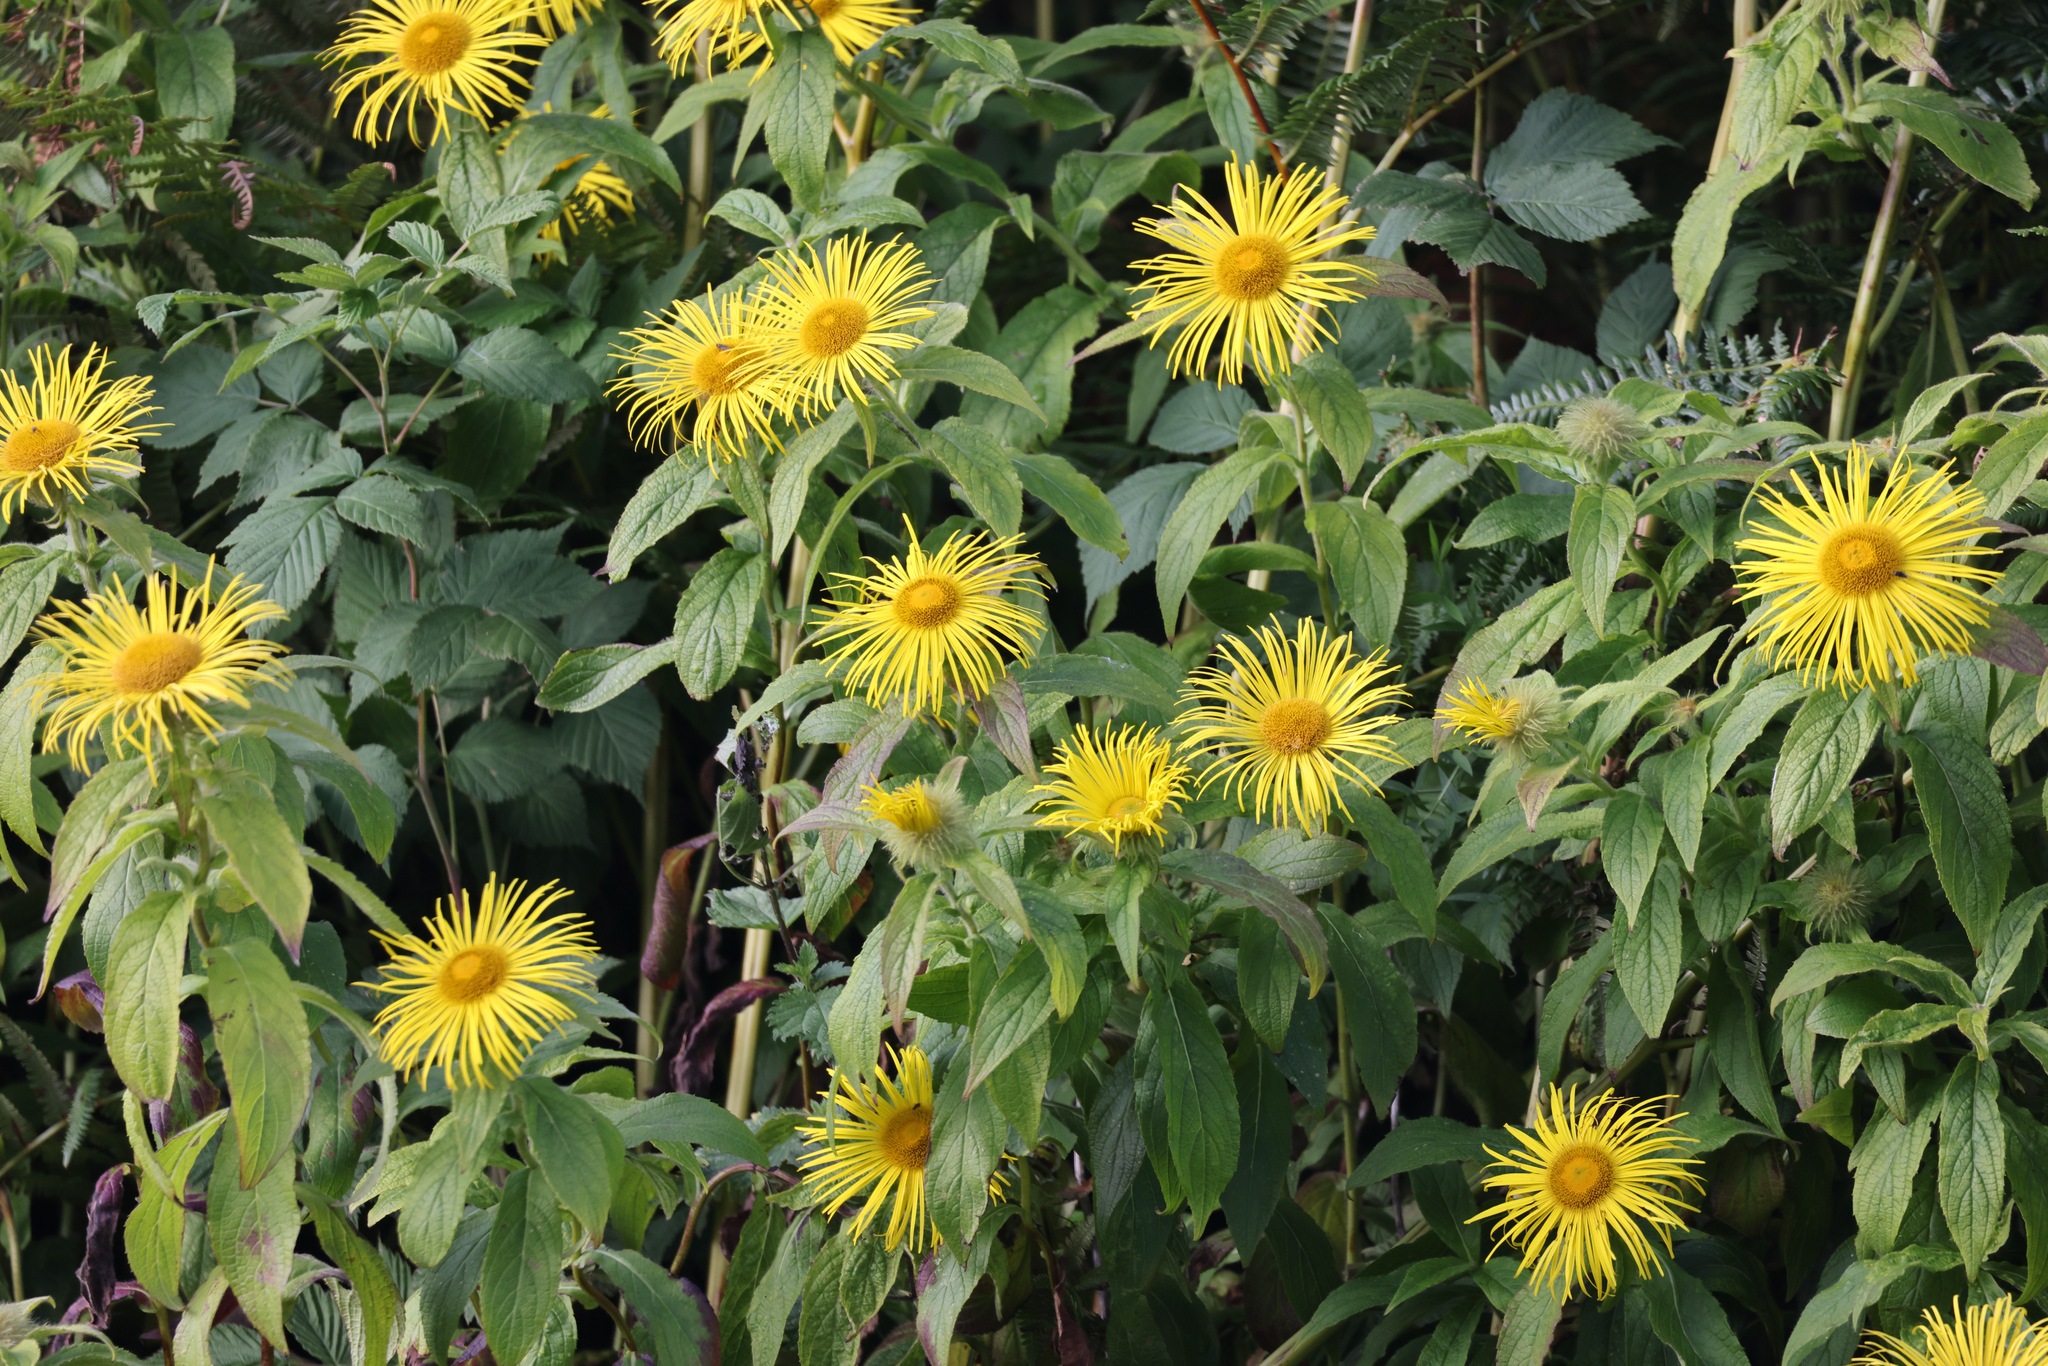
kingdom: Plantae
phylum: Tracheophyta
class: Magnoliopsida
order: Asterales
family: Asteraceae
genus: Inula
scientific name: Inula hookeri
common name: Hooker's-fleabane
